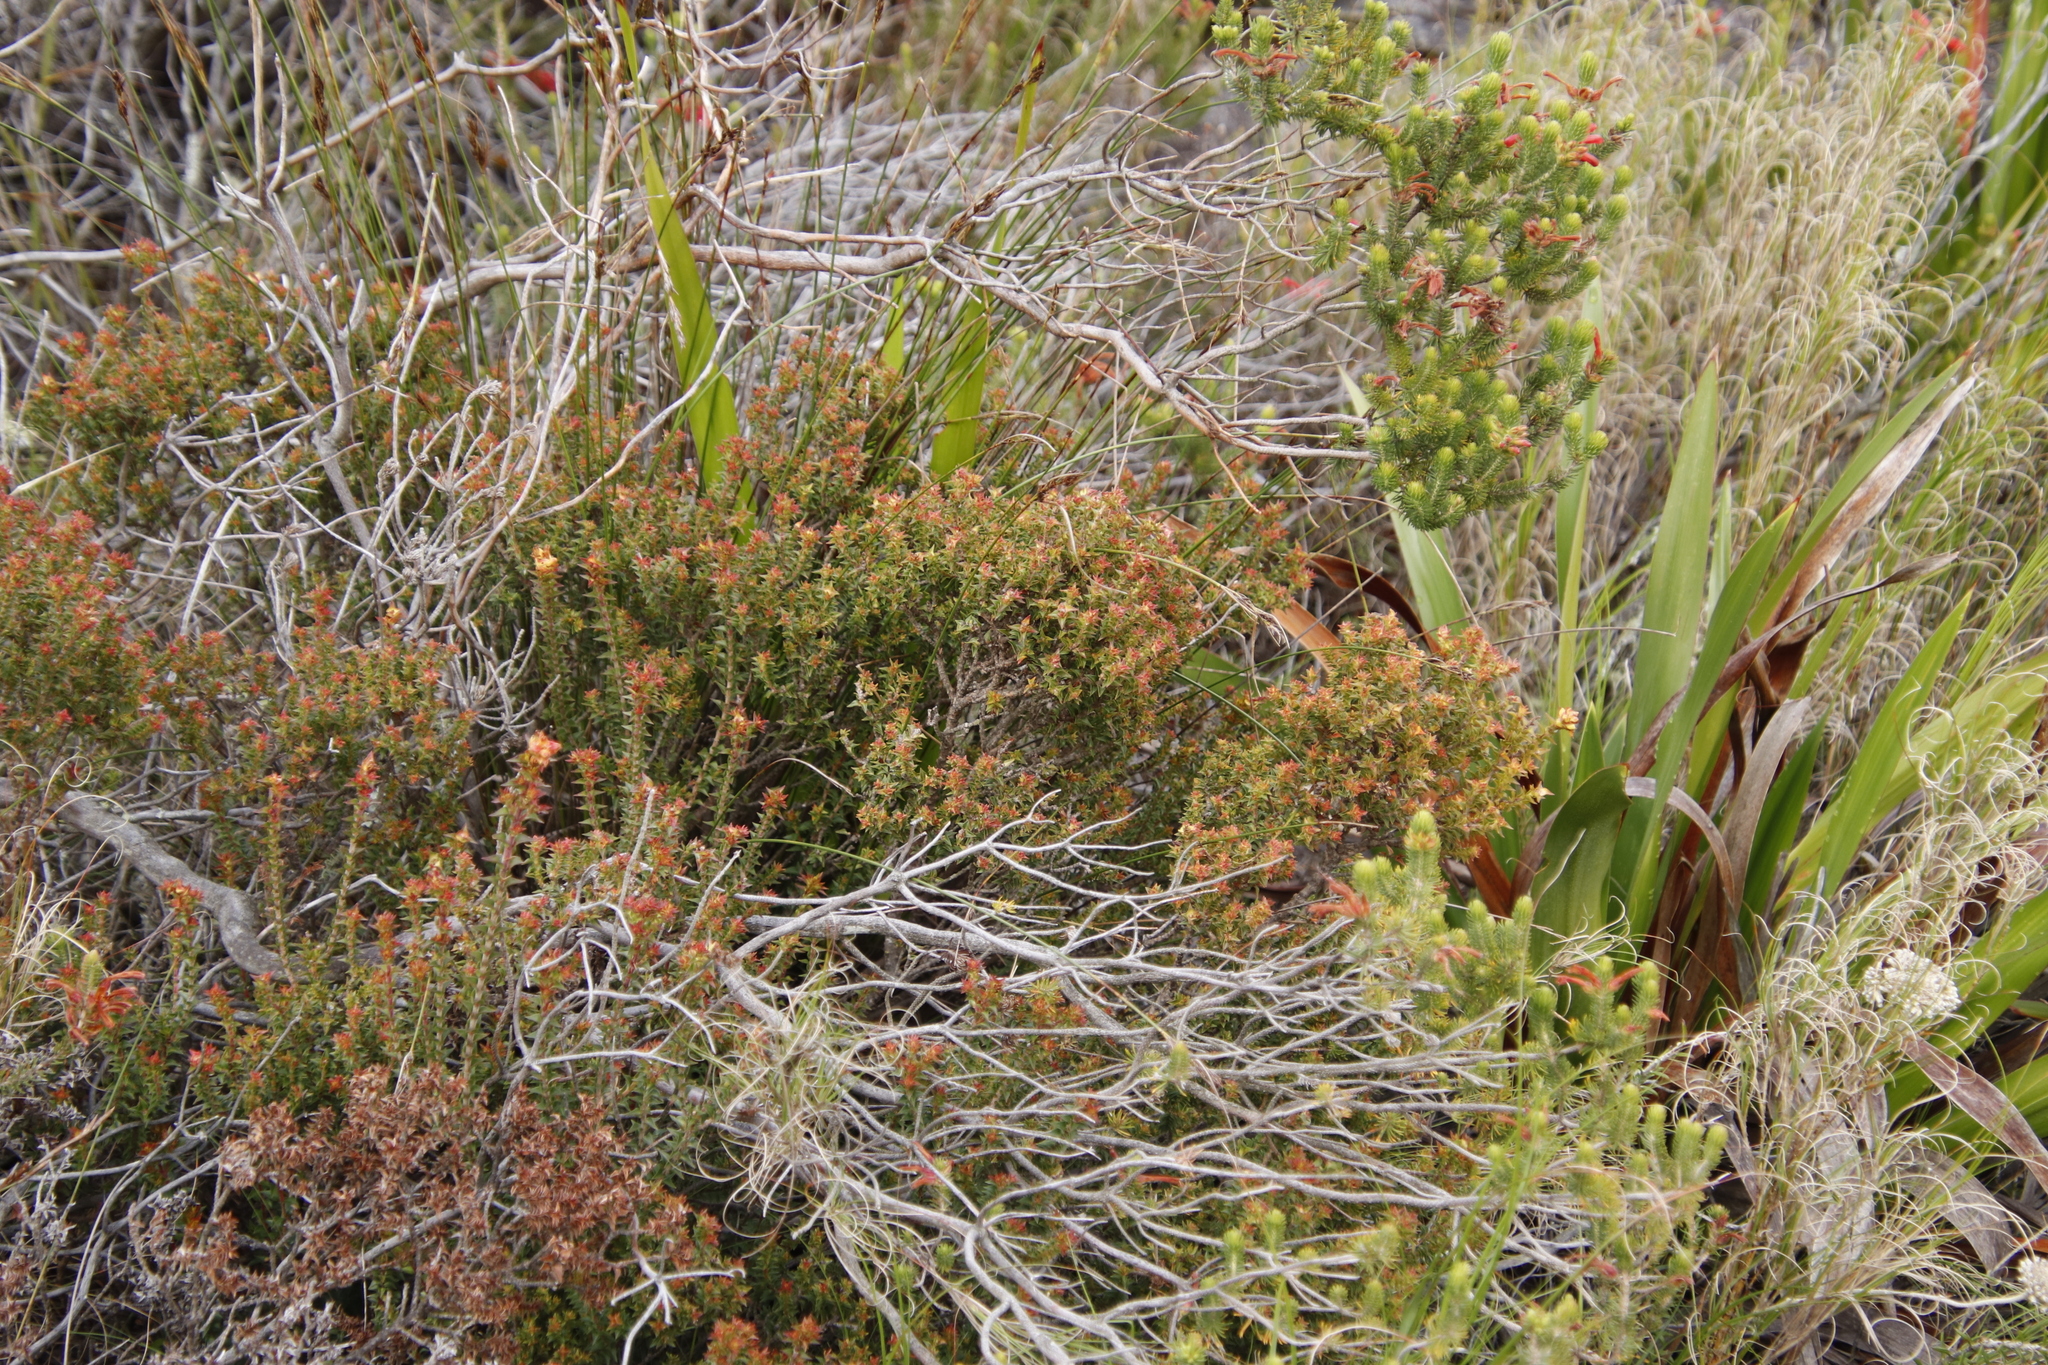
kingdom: Plantae
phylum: Tracheophyta
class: Magnoliopsida
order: Myrtales
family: Penaeaceae
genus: Penaea
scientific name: Penaea mucronata
